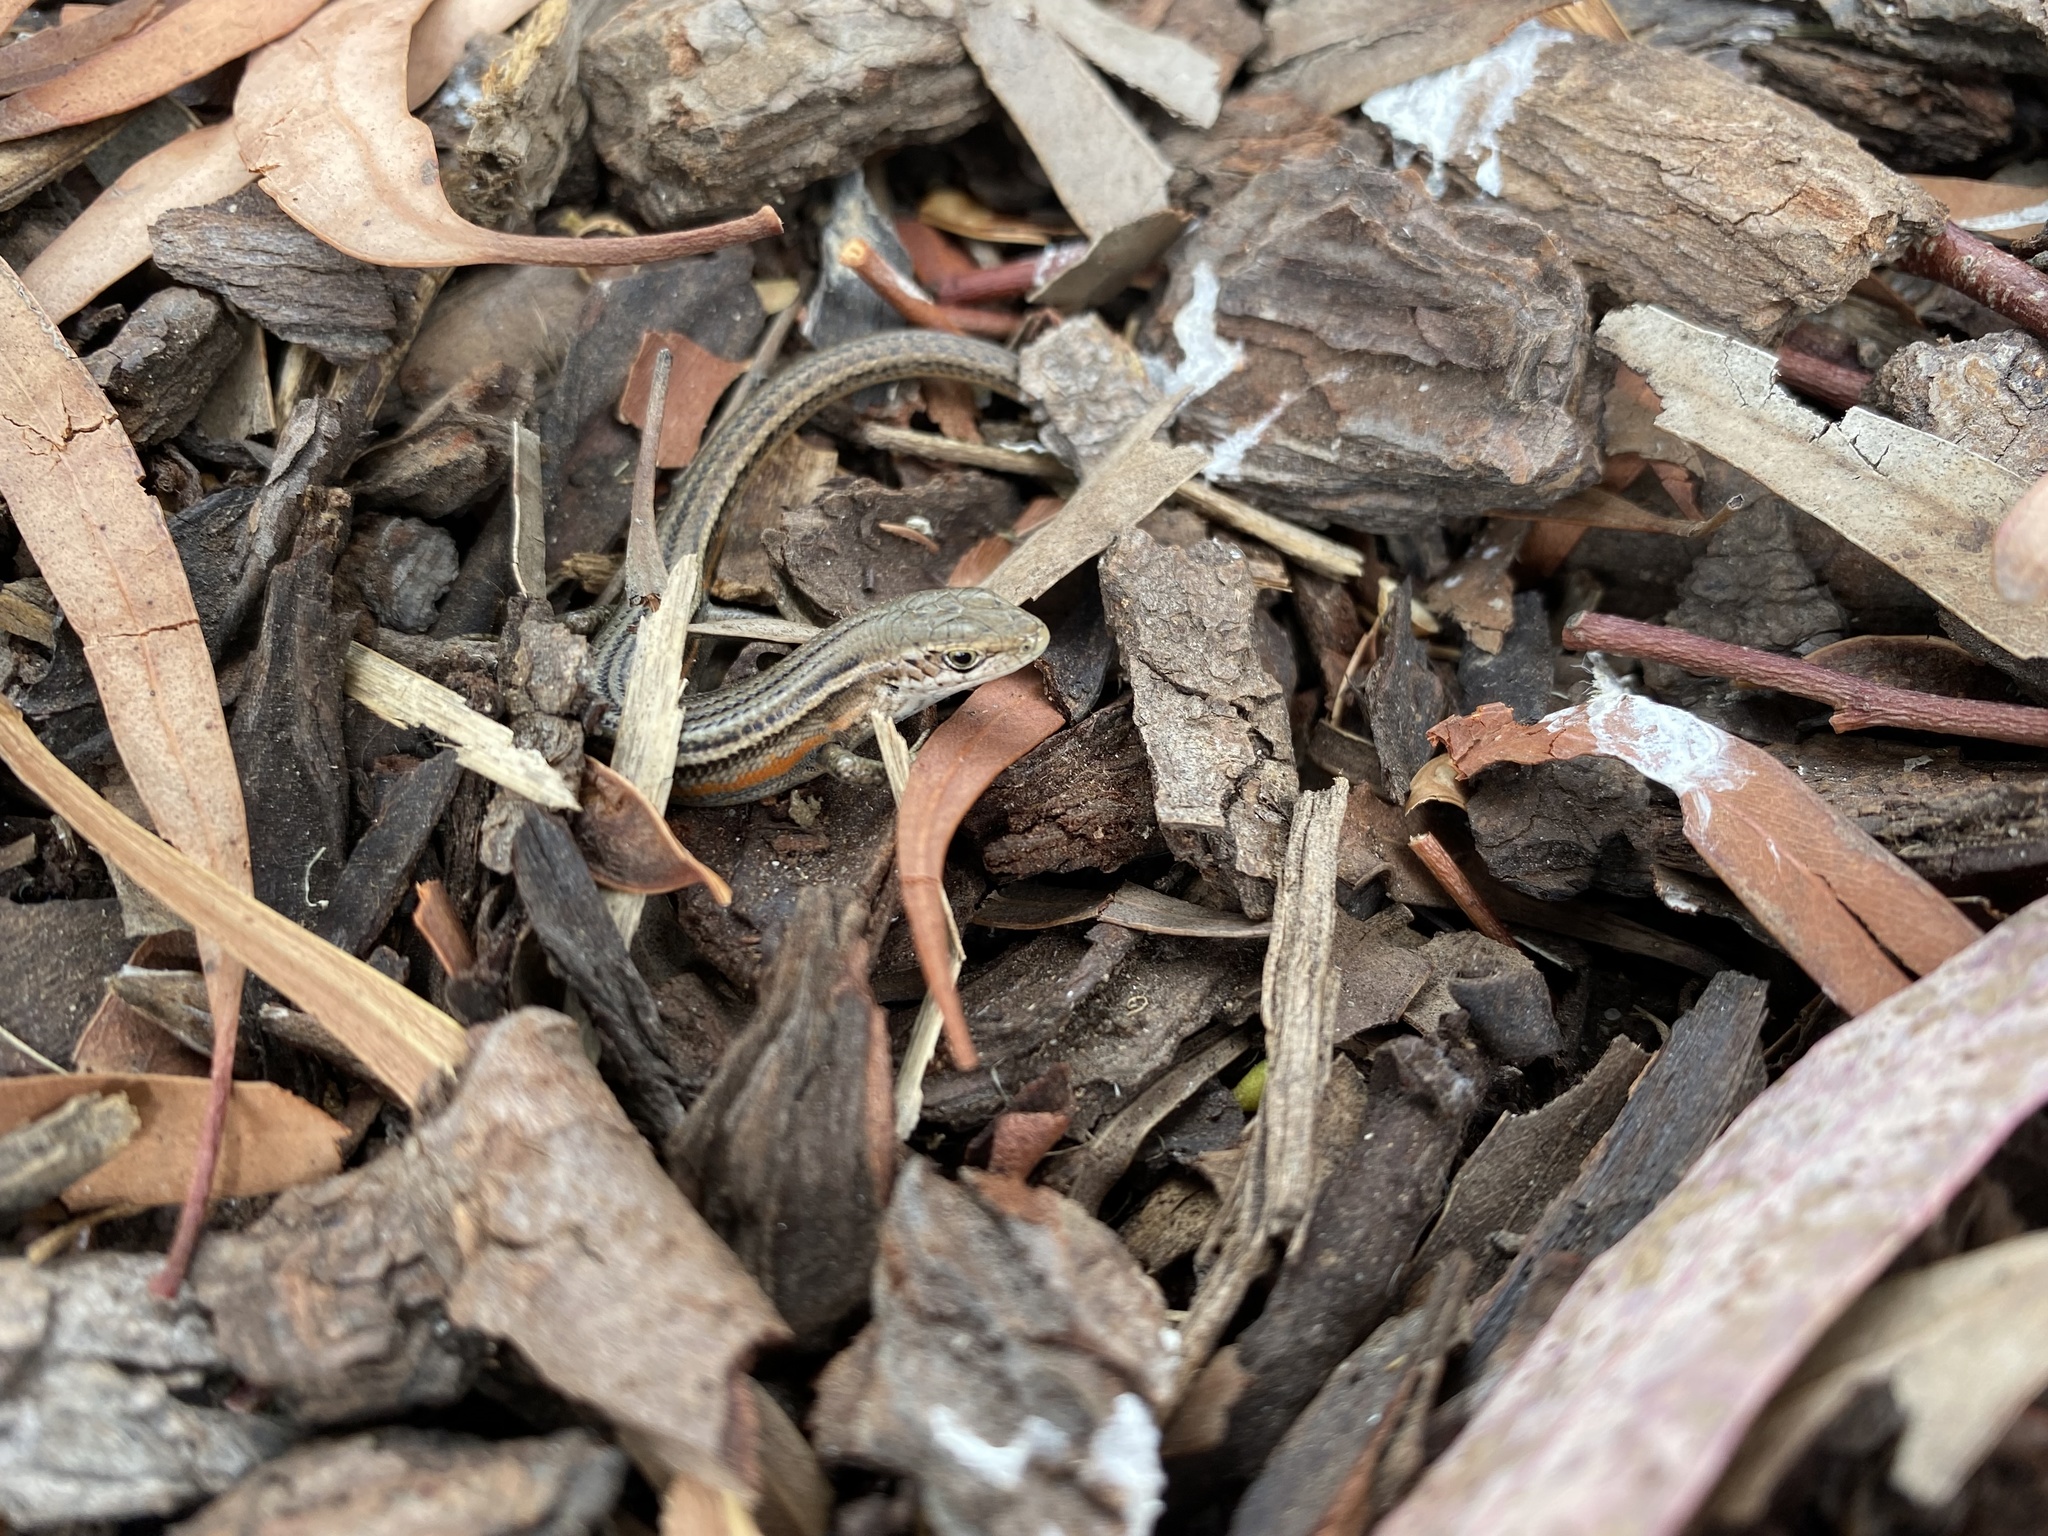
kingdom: Animalia
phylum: Chordata
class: Squamata
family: Scincidae
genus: Pseudemoia
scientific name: Pseudemoia pagenstecheri
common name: Southern grass tussock skink
